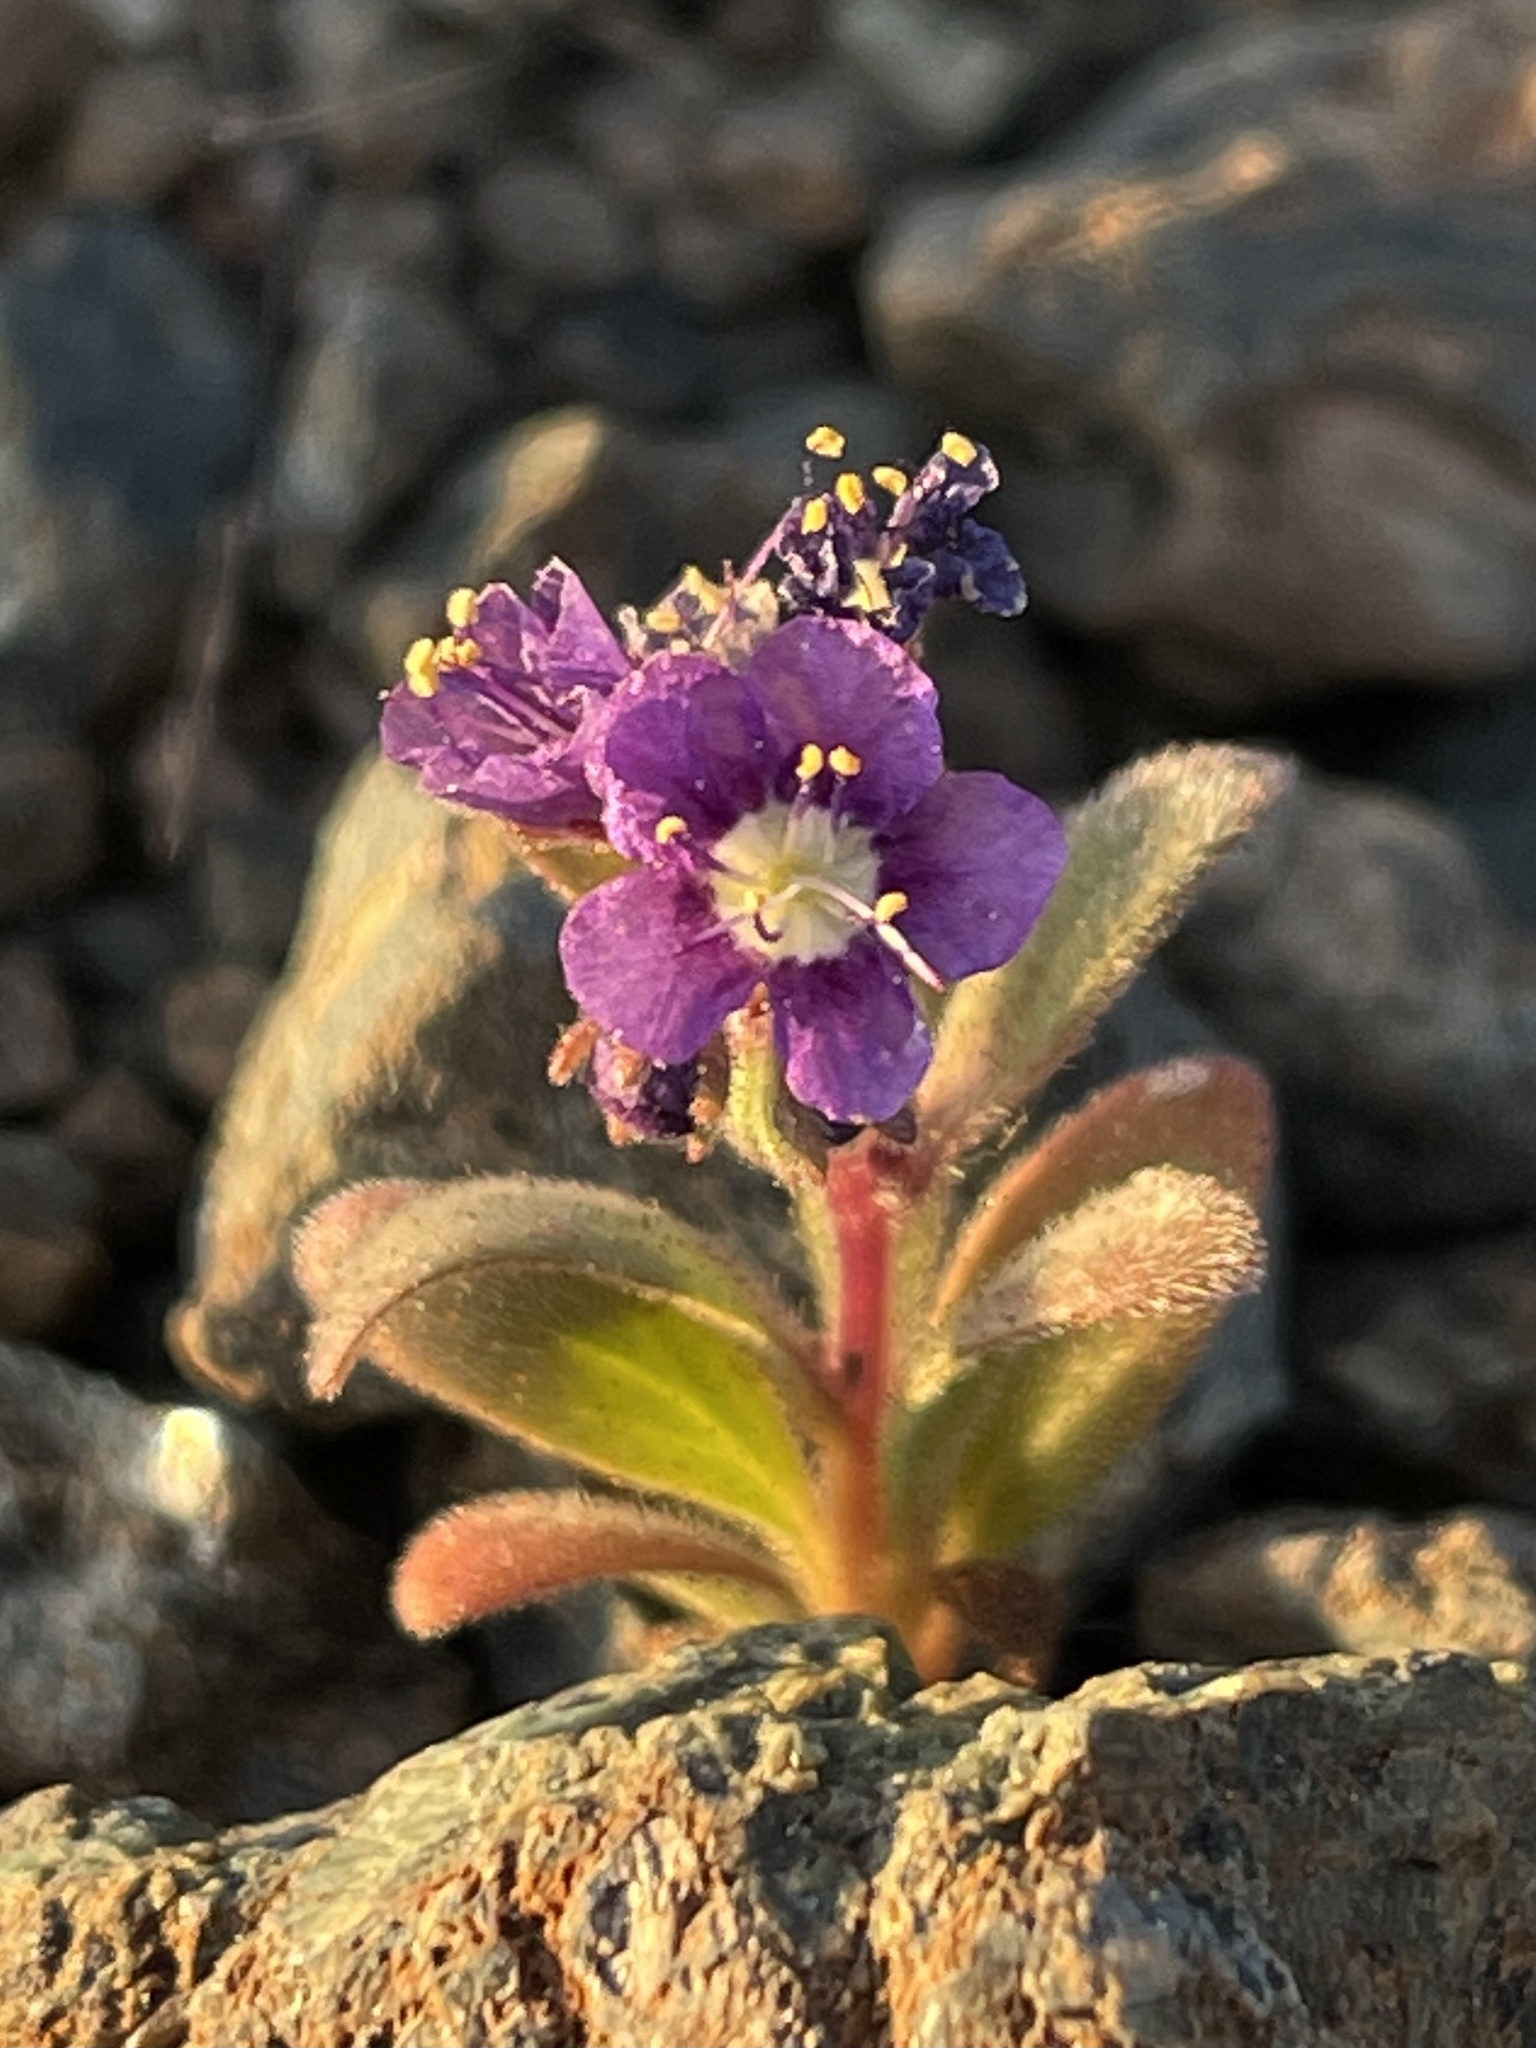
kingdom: Plantae
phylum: Tracheophyta
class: Magnoliopsida
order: Boraginales
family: Hydrophyllaceae
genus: Phacelia
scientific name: Phacelia greenei
